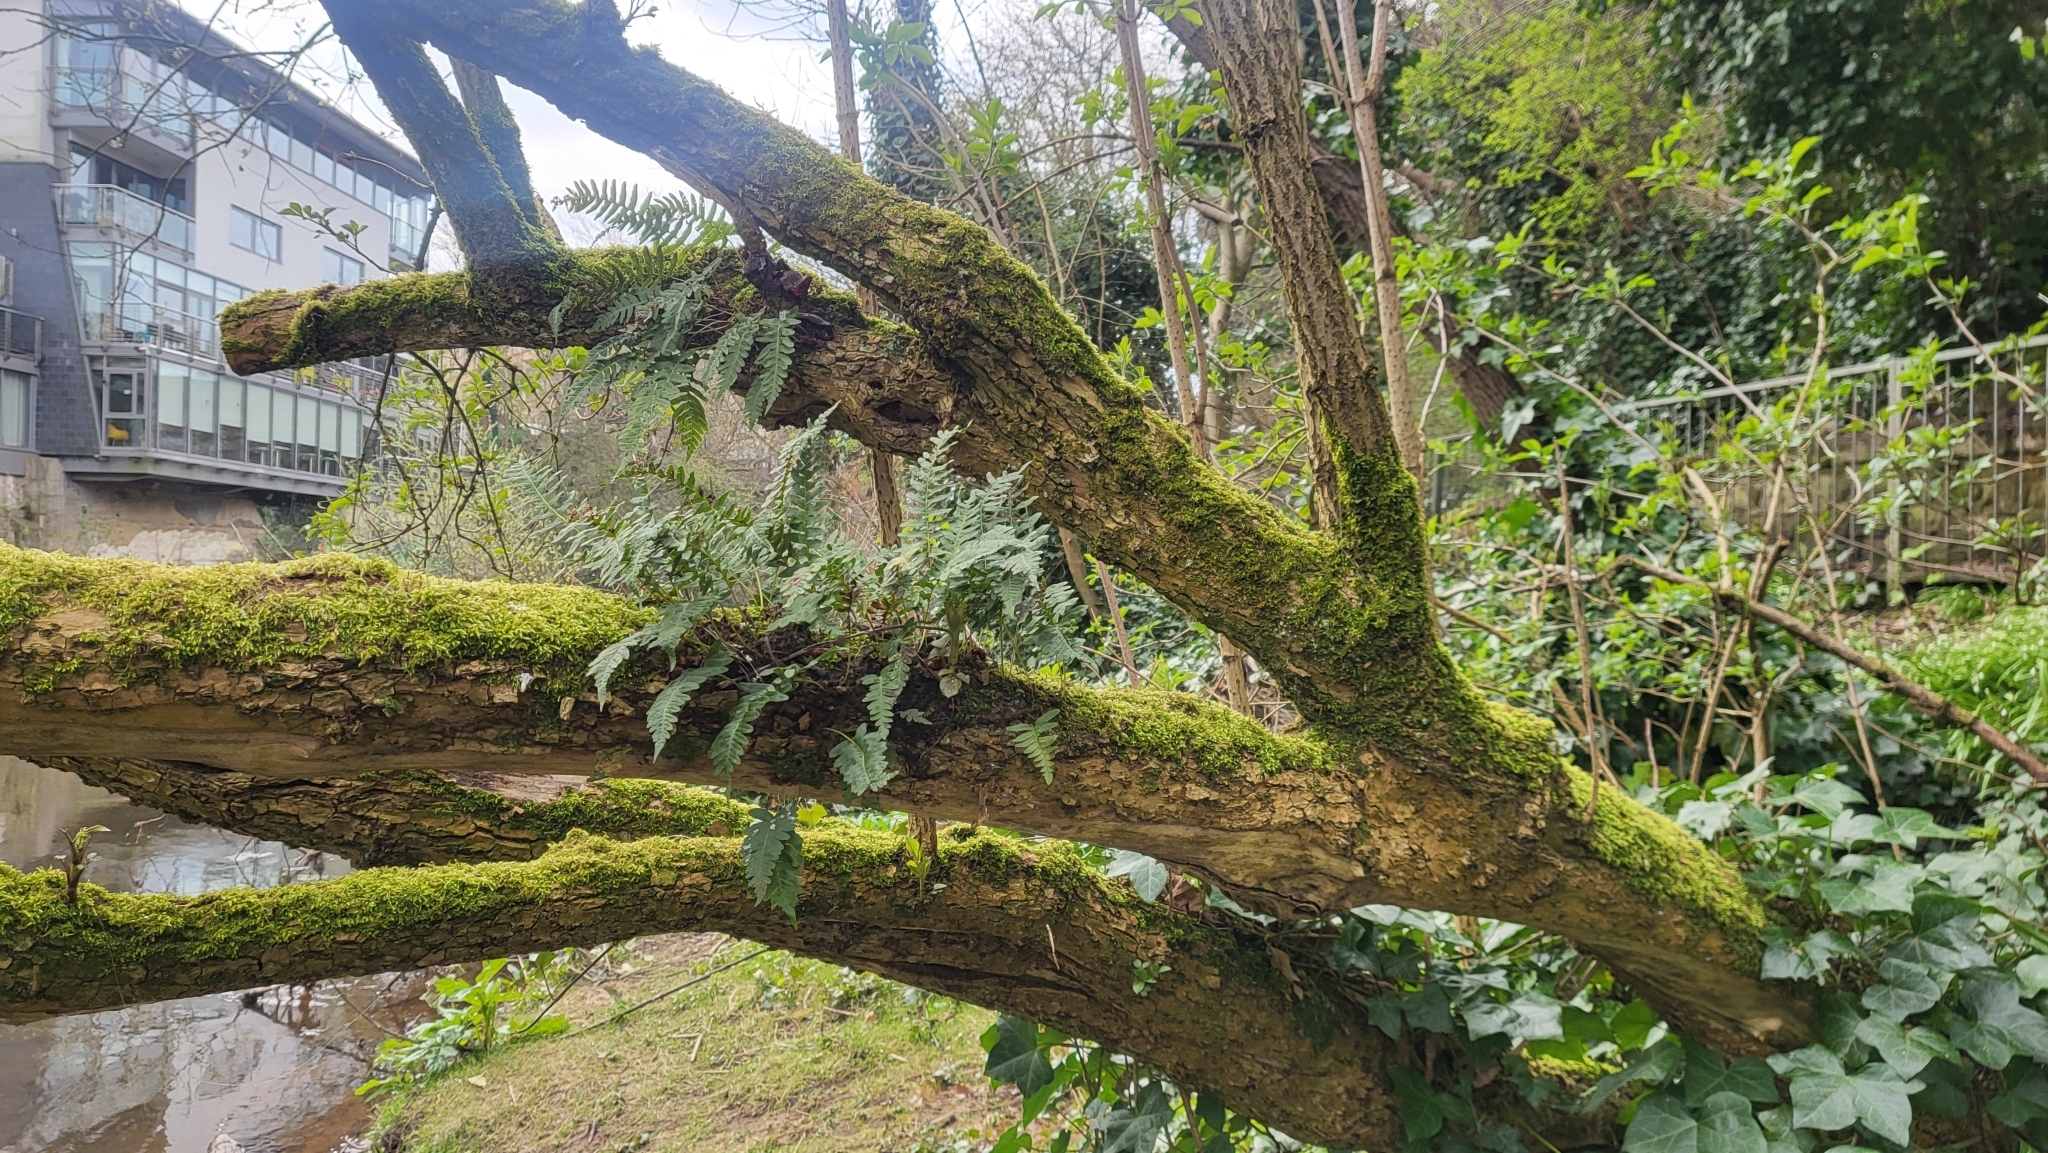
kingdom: Plantae
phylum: Tracheophyta
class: Polypodiopsida
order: Polypodiales
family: Polypodiaceae
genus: Polypodium
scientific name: Polypodium vulgare
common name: Common polypody
